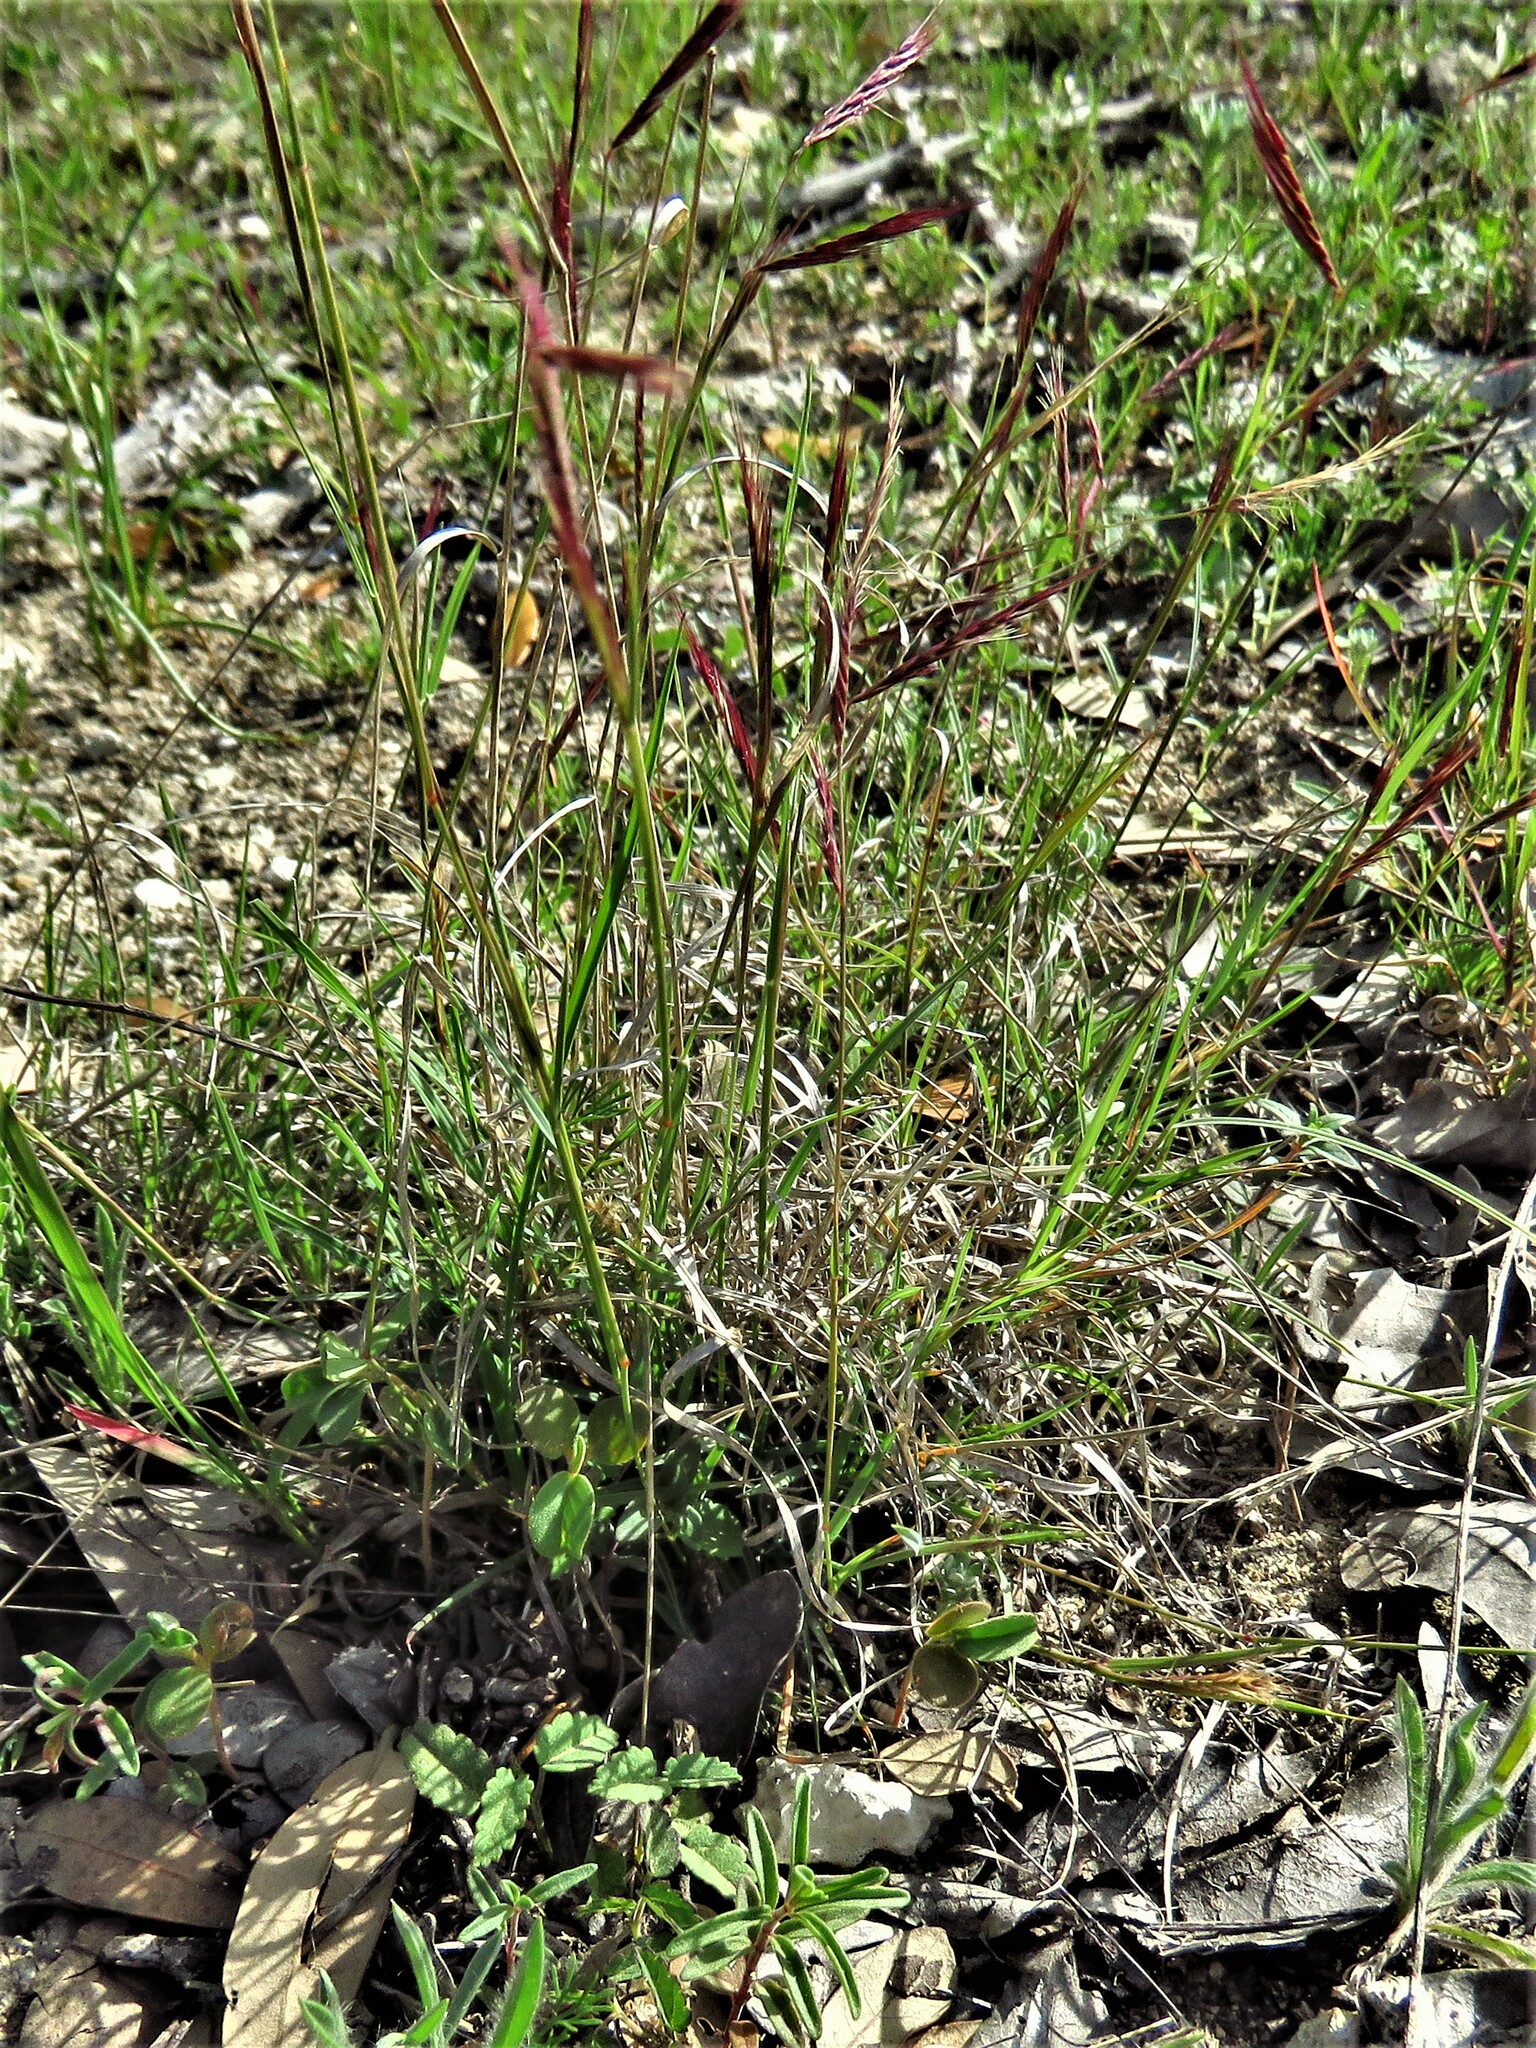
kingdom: Plantae
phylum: Tracheophyta
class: Liliopsida
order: Poales
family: Poaceae
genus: Bouteloua
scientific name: Bouteloua trifida
